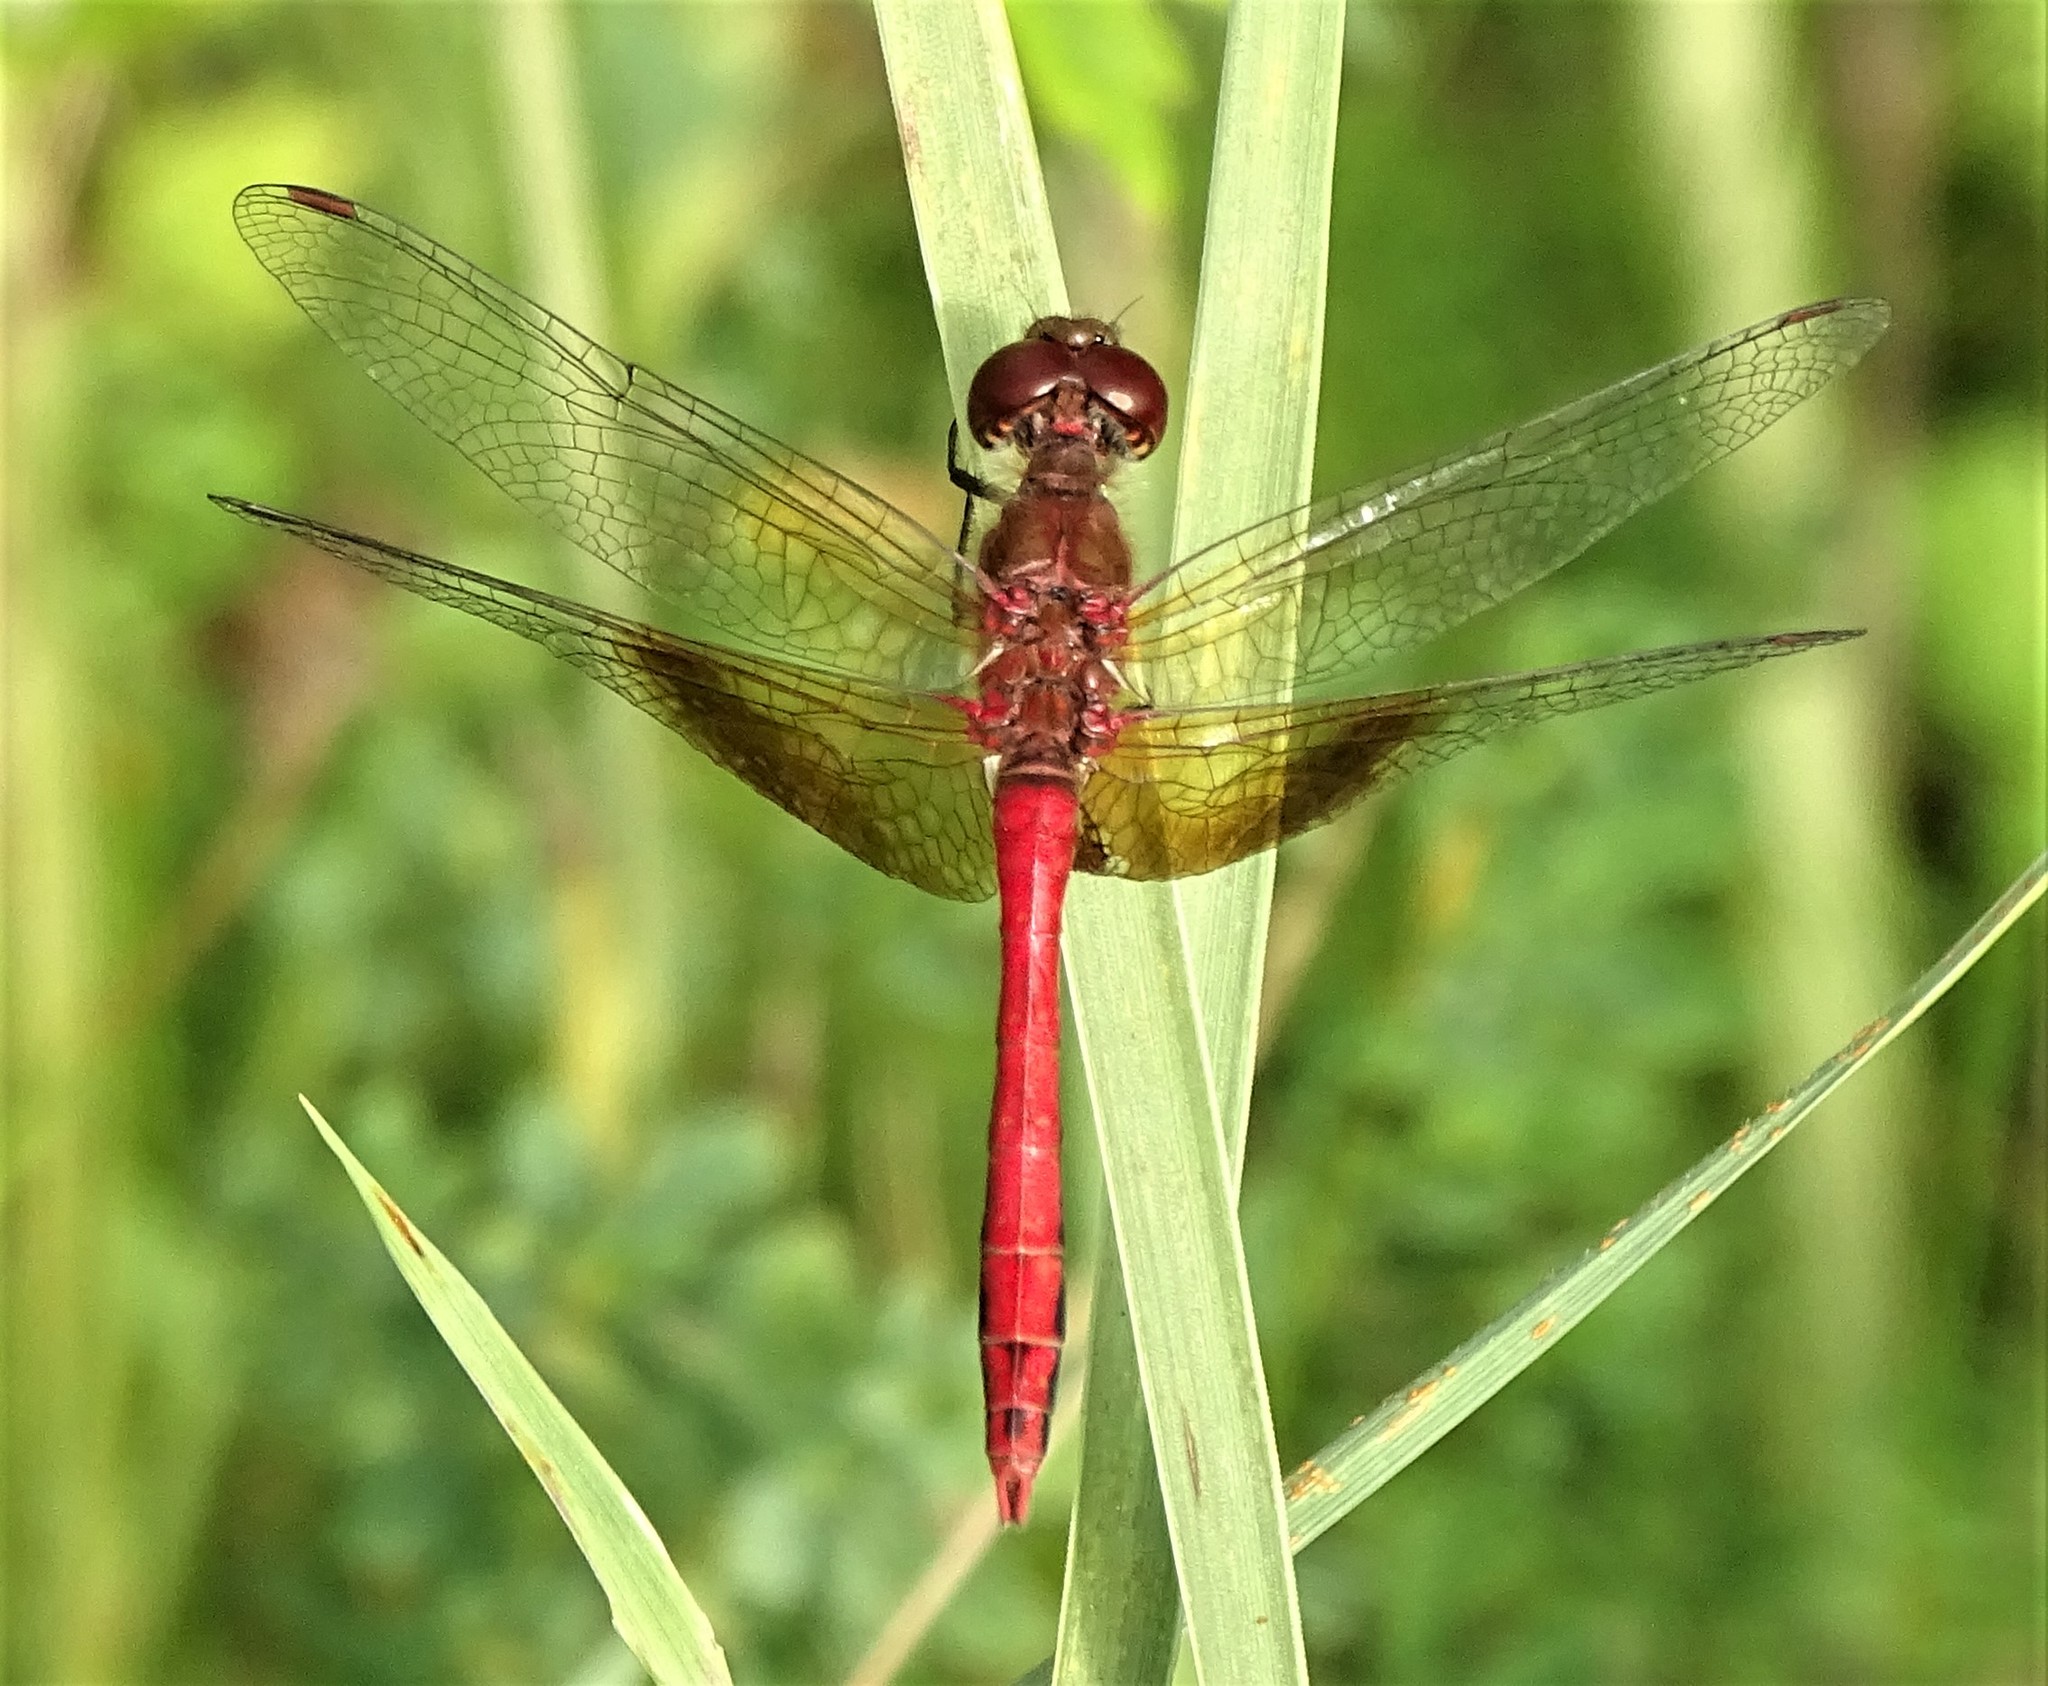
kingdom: Animalia
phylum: Arthropoda
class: Insecta
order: Odonata
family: Libellulidae
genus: Sympetrum
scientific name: Sympetrum semicinctum
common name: Band-winged meadowhawk
